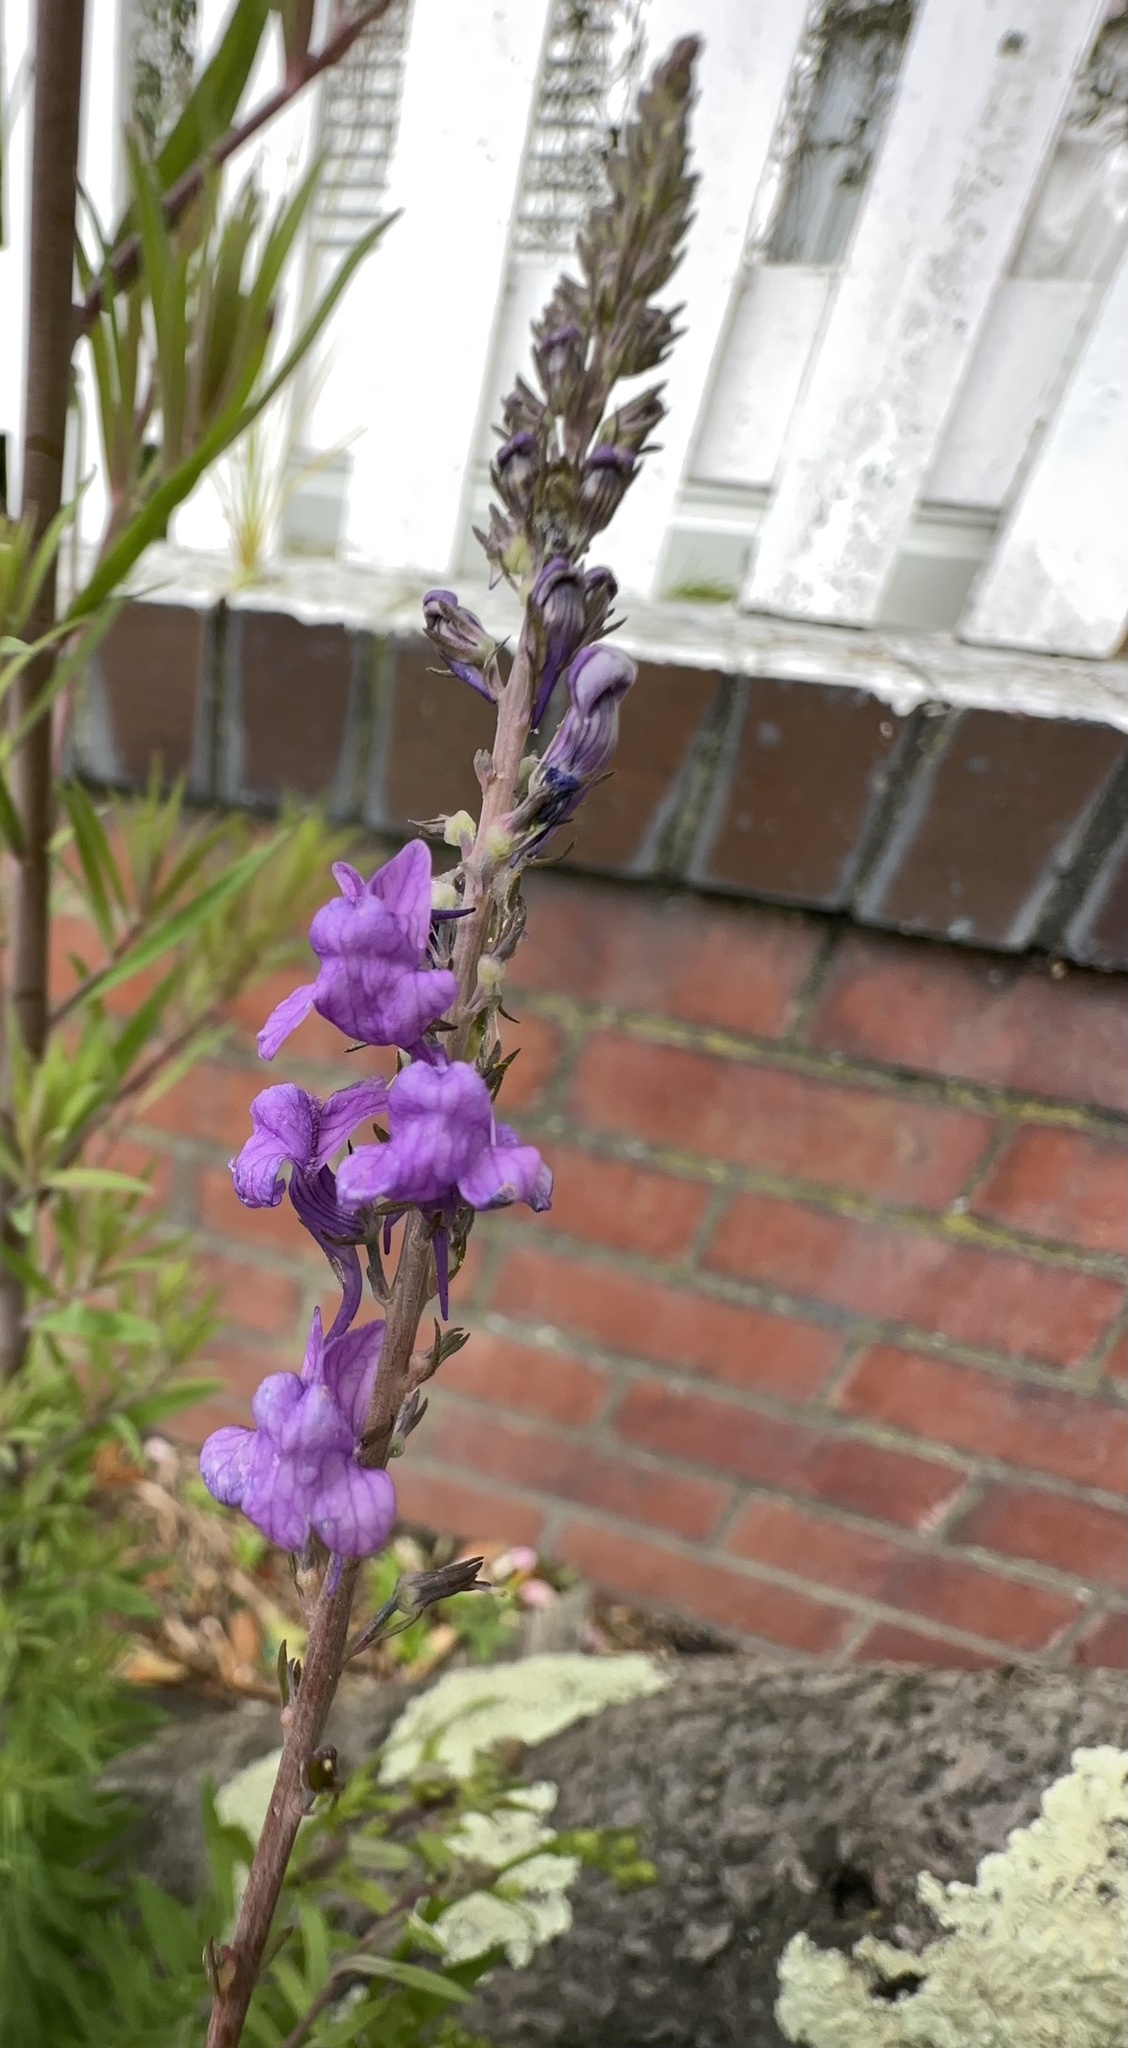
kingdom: Plantae
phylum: Tracheophyta
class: Magnoliopsida
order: Lamiales
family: Plantaginaceae
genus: Linaria
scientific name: Linaria purpurea
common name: Purple toadflax
